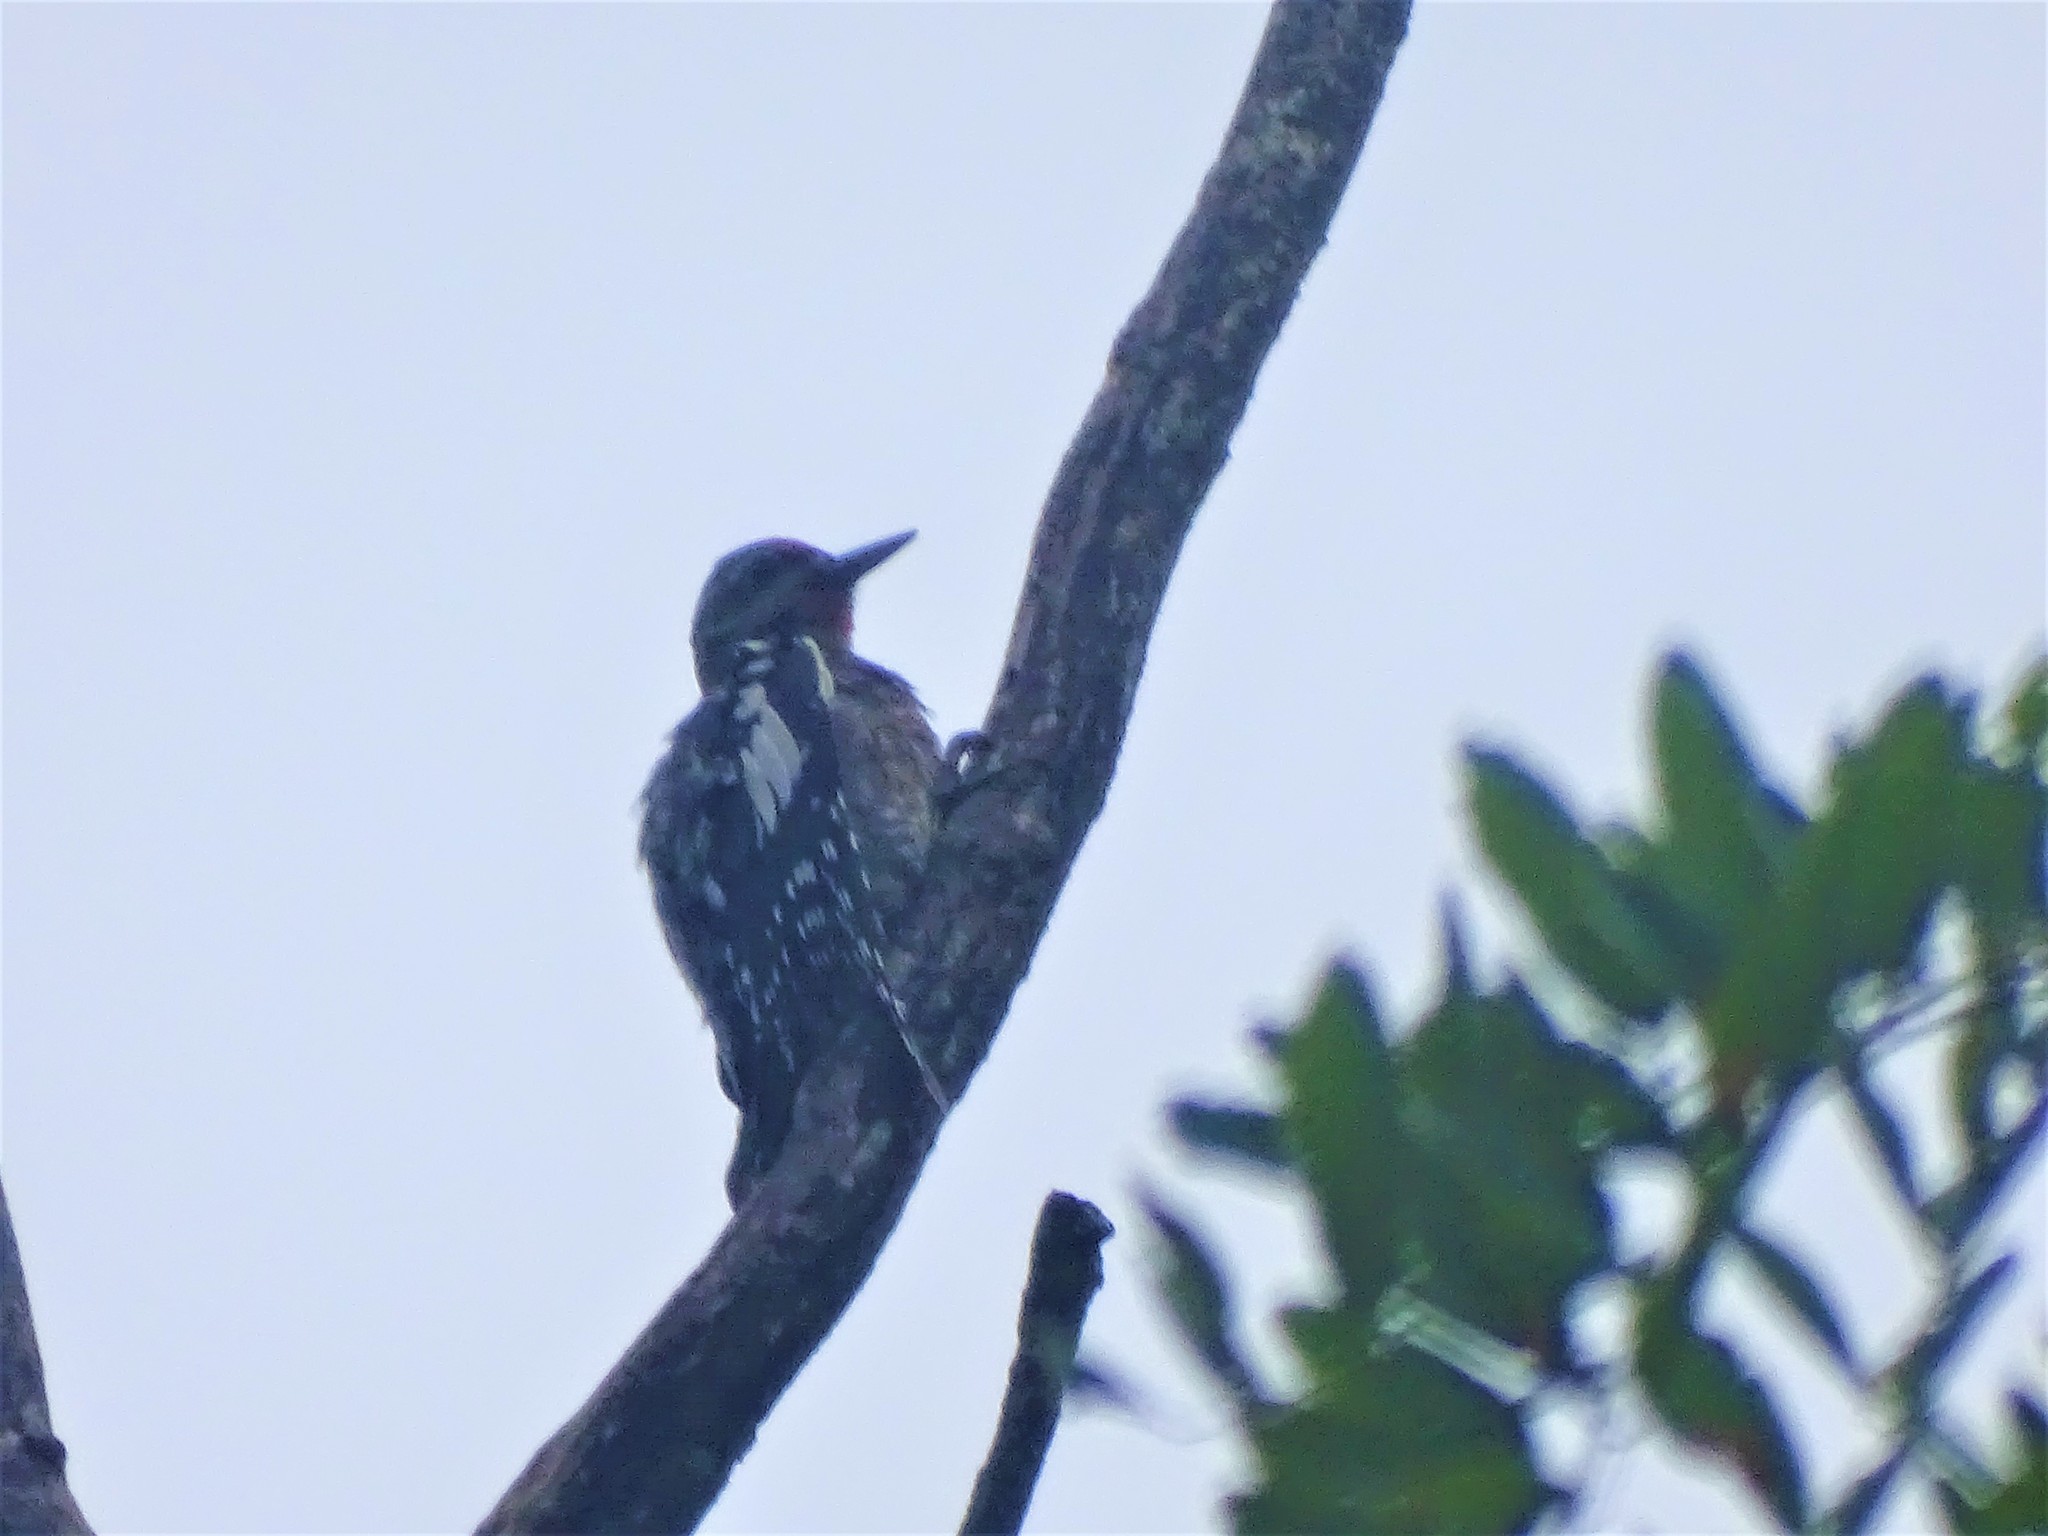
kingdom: Animalia
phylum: Chordata
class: Aves
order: Piciformes
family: Picidae
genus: Sphyrapicus
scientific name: Sphyrapicus varius
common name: Yellow-bellied sapsucker
